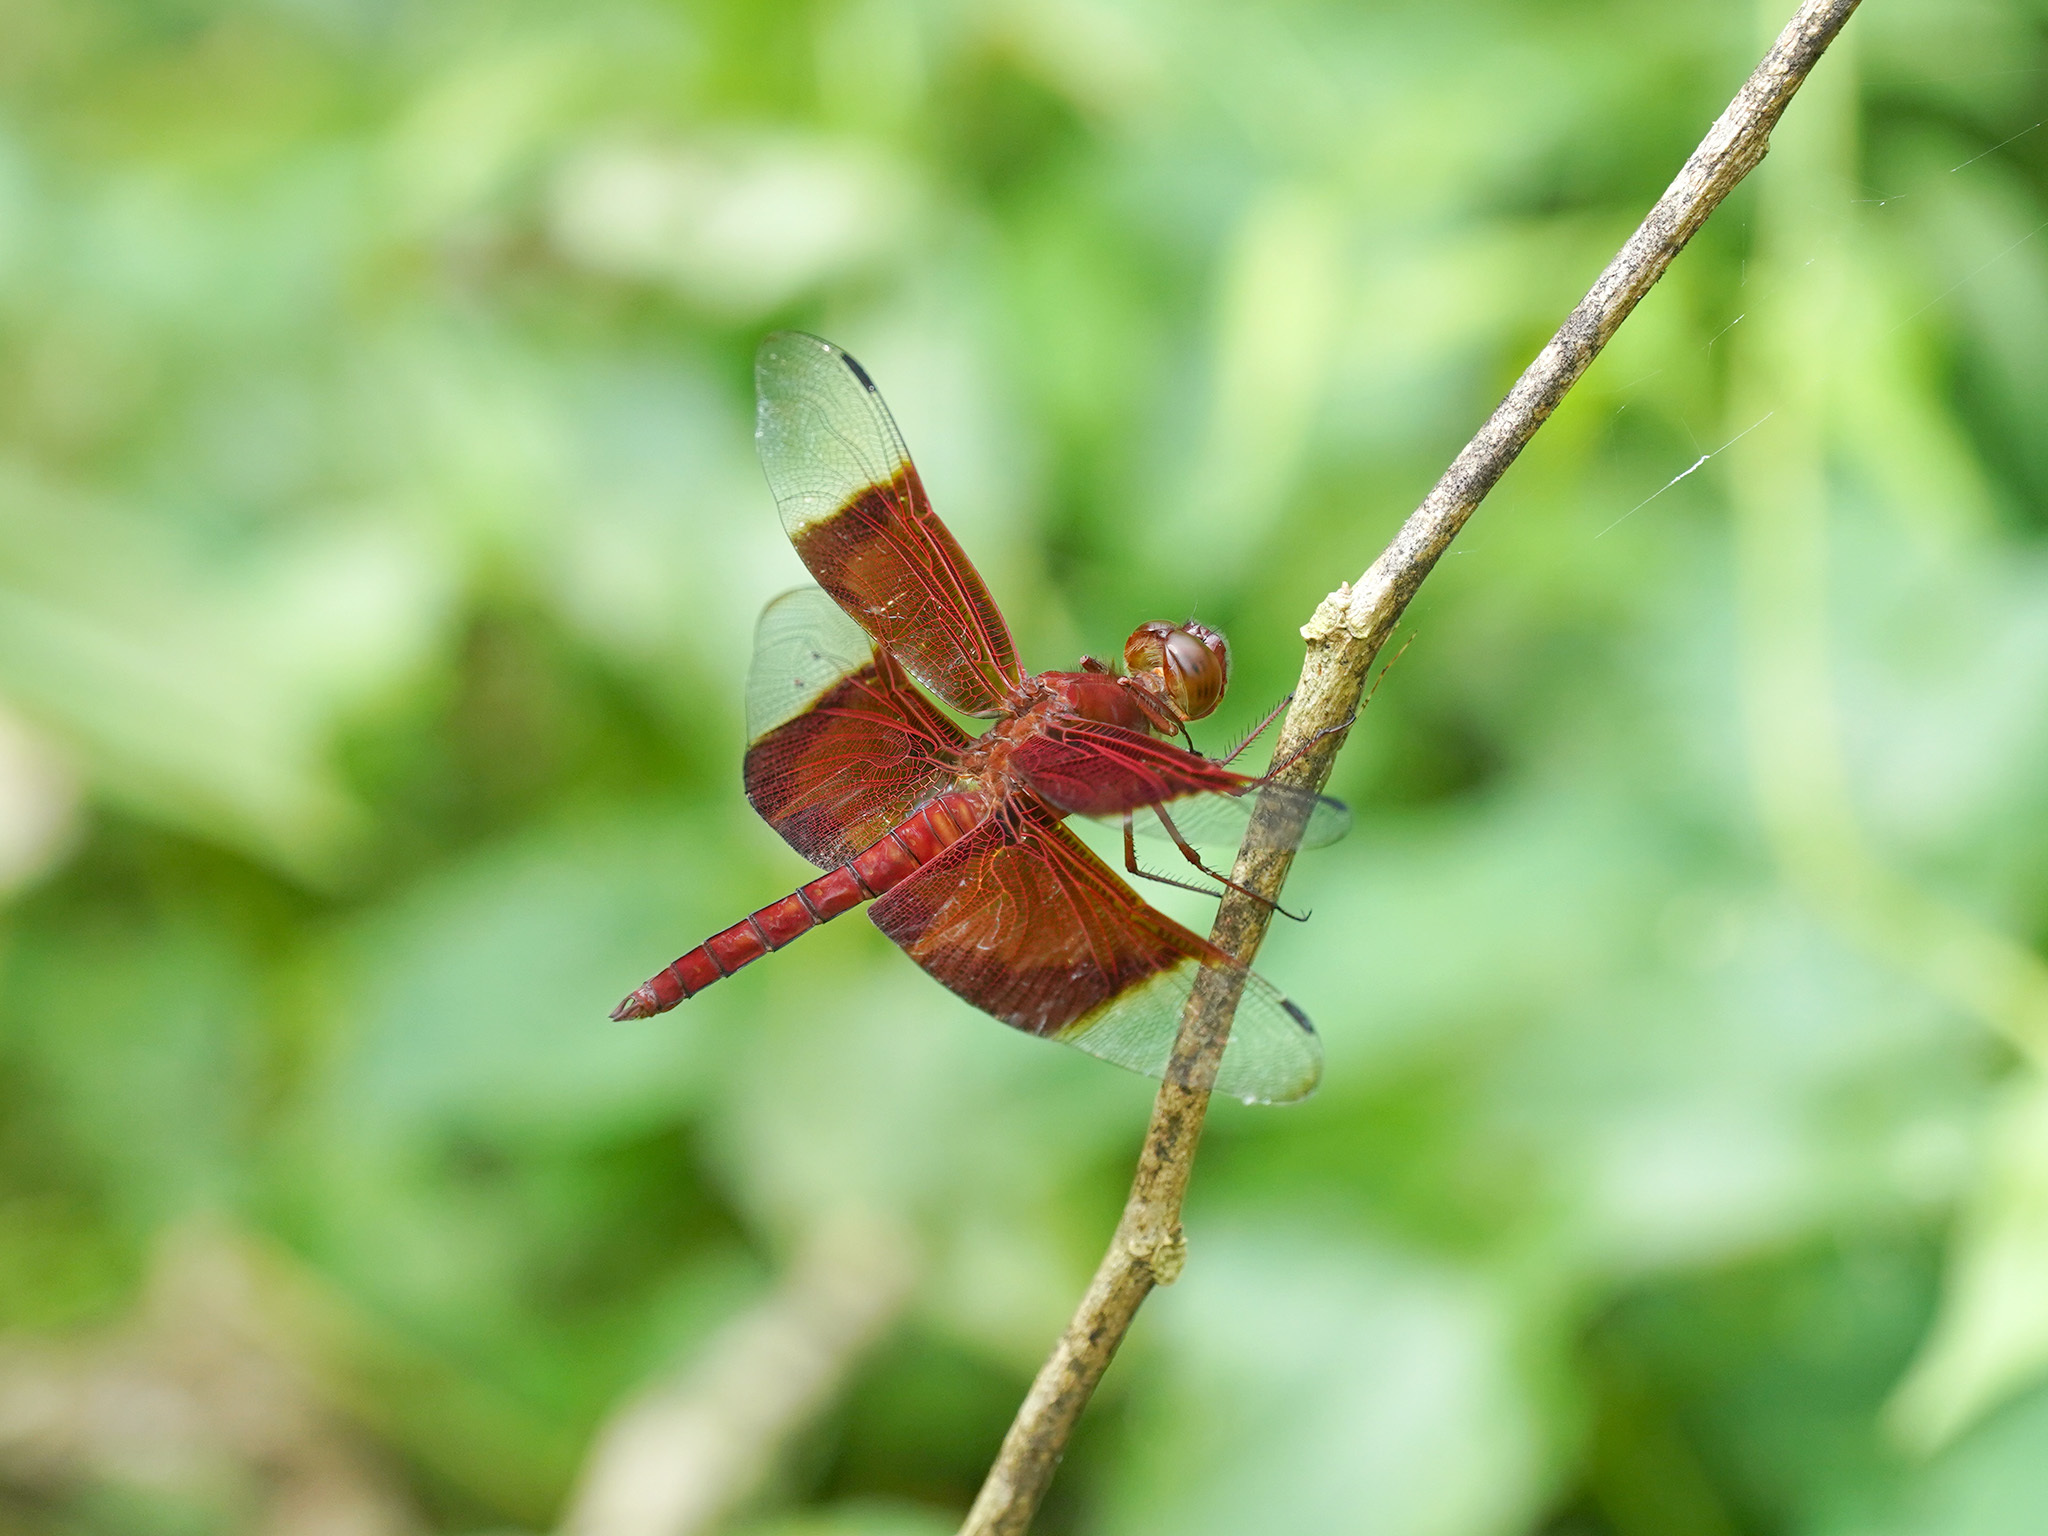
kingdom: Animalia
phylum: Arthropoda
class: Insecta
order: Odonata
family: Libellulidae
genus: Camacinia
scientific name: Camacinia gigantea
